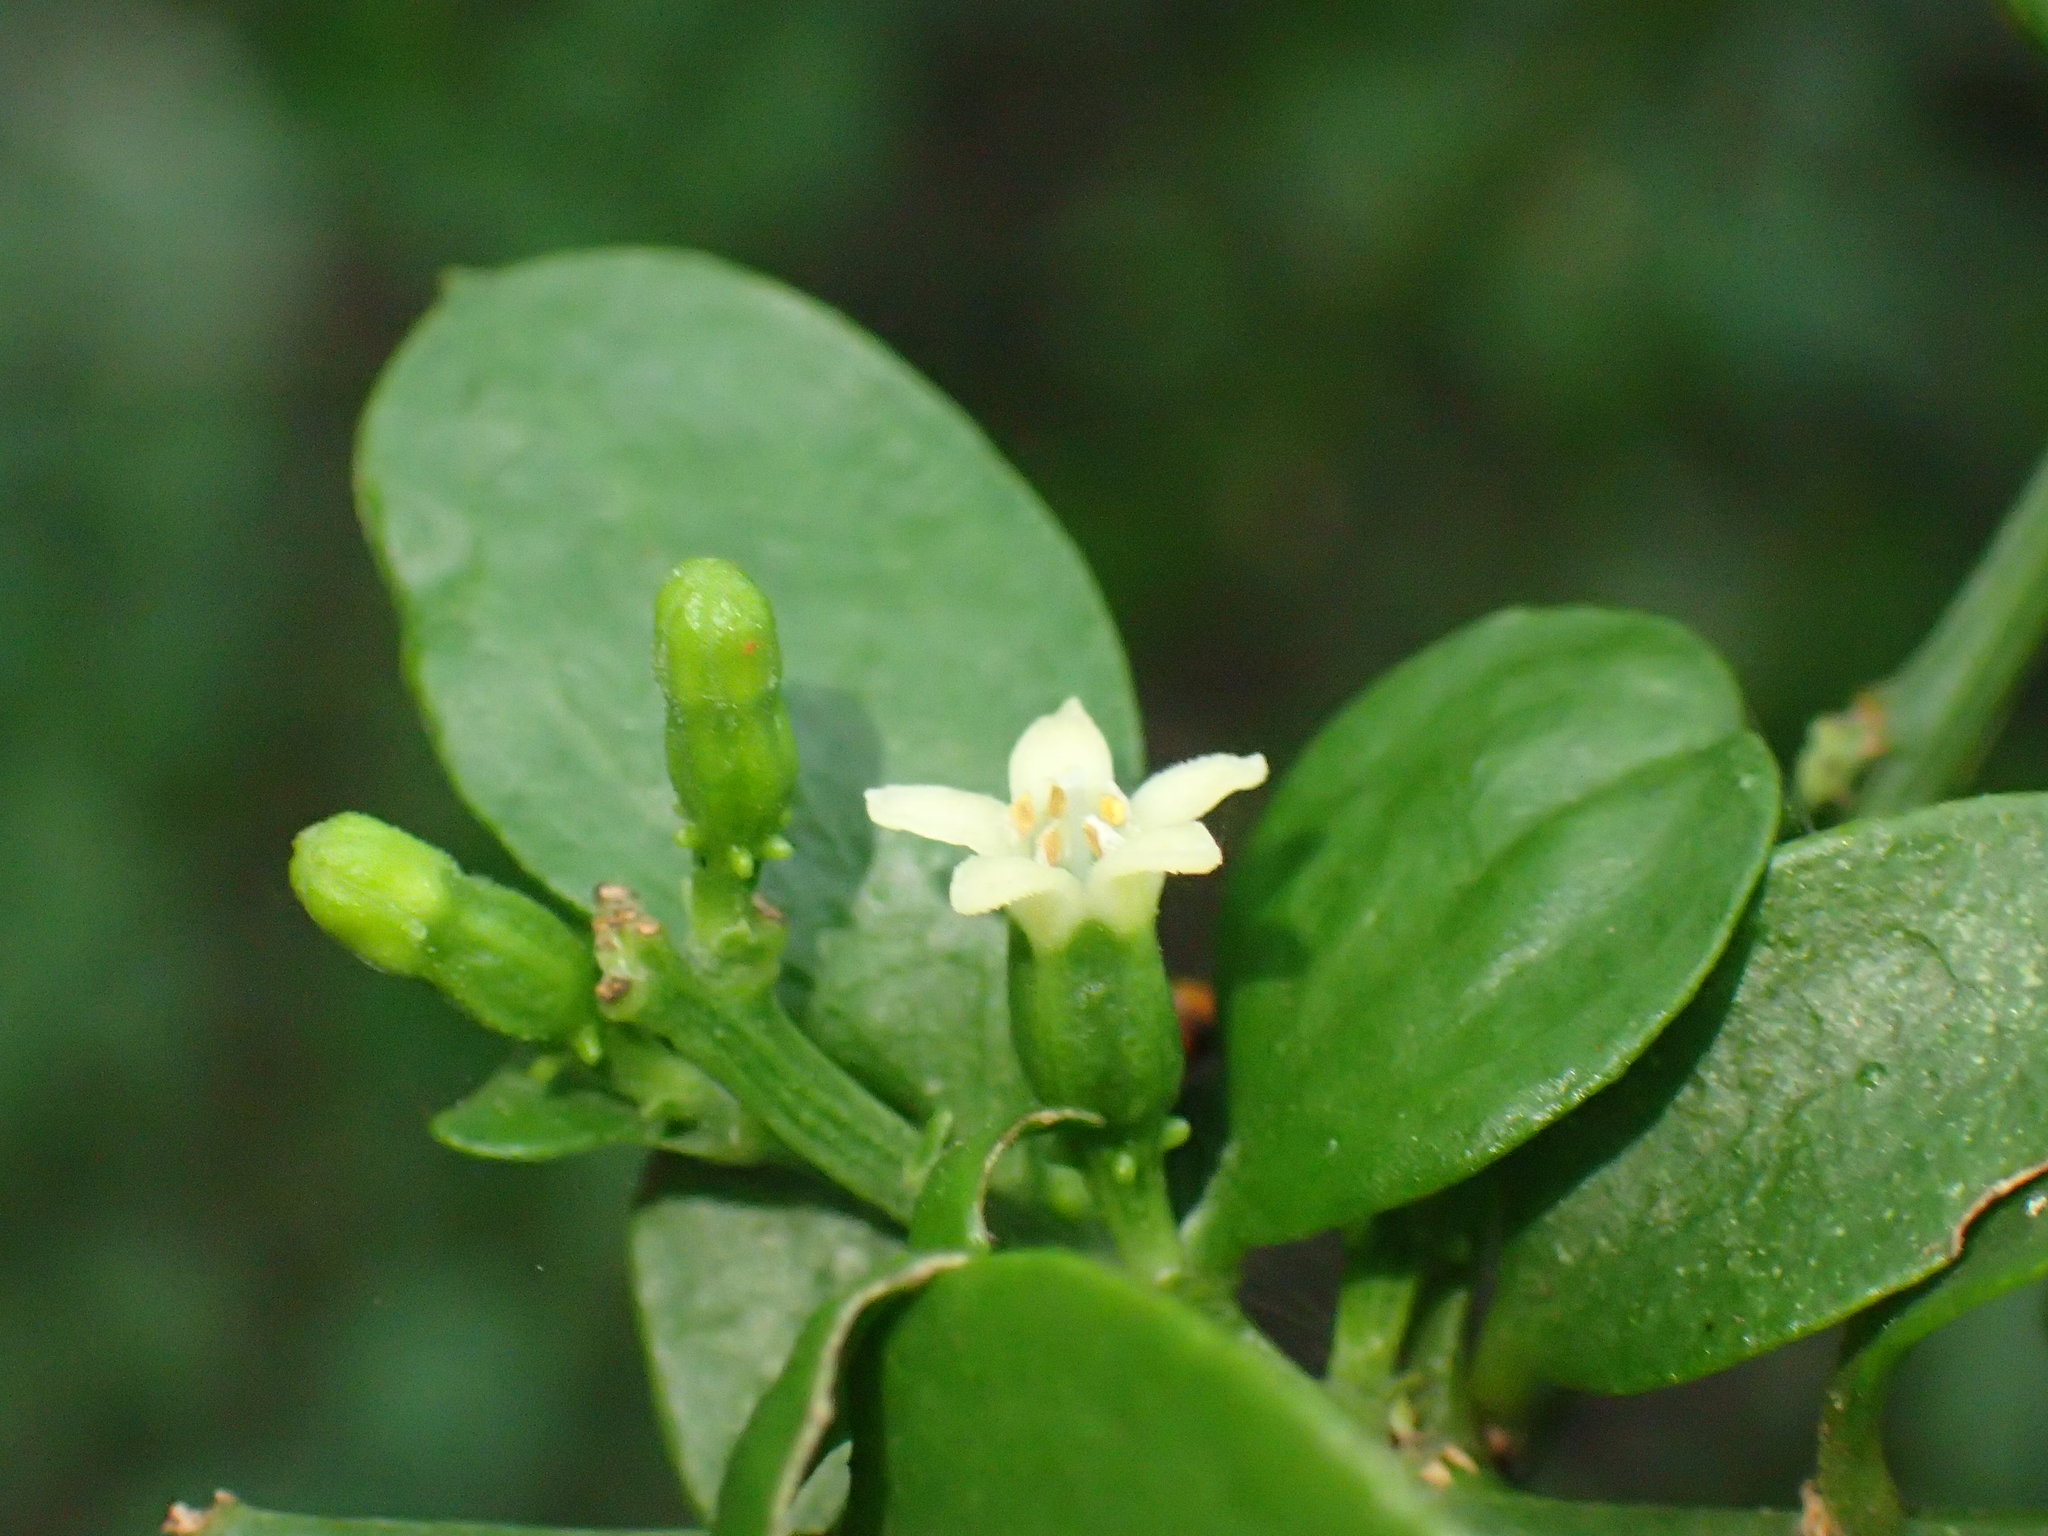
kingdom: Plantae
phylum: Tracheophyta
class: Magnoliopsida
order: Santalales
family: Thesiaceae
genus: Osyridicarpos
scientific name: Osyridicarpos schimperianus
